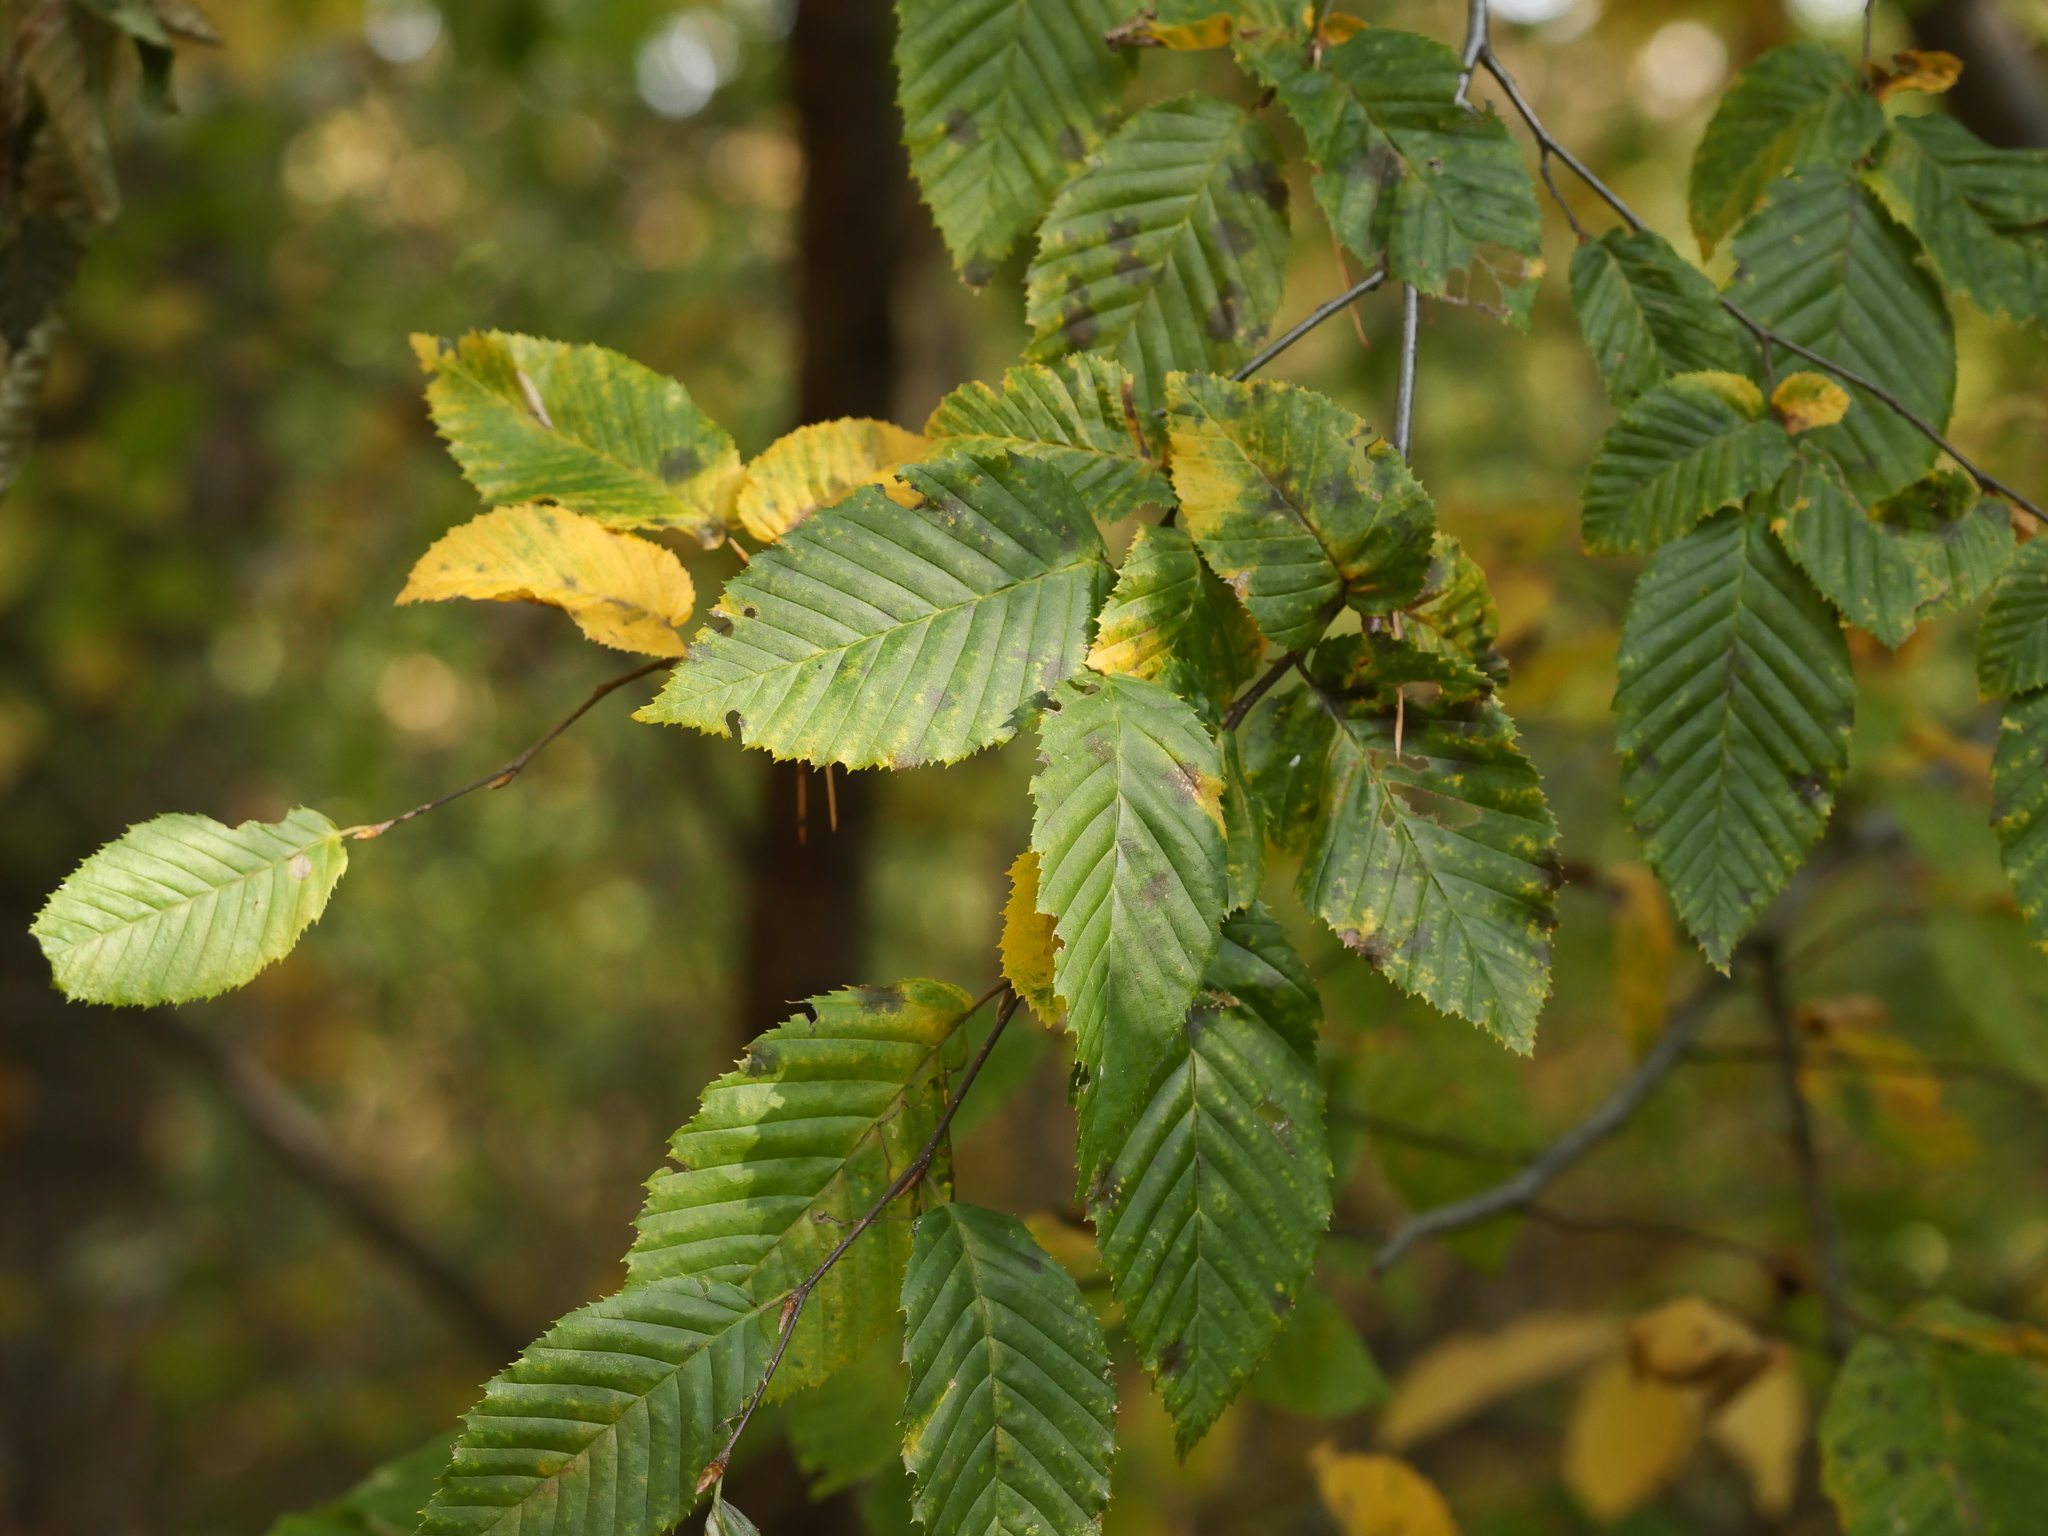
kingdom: Plantae
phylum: Tracheophyta
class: Magnoliopsida
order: Fagales
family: Betulaceae
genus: Carpinus
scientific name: Carpinus betulus
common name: Hornbeam
